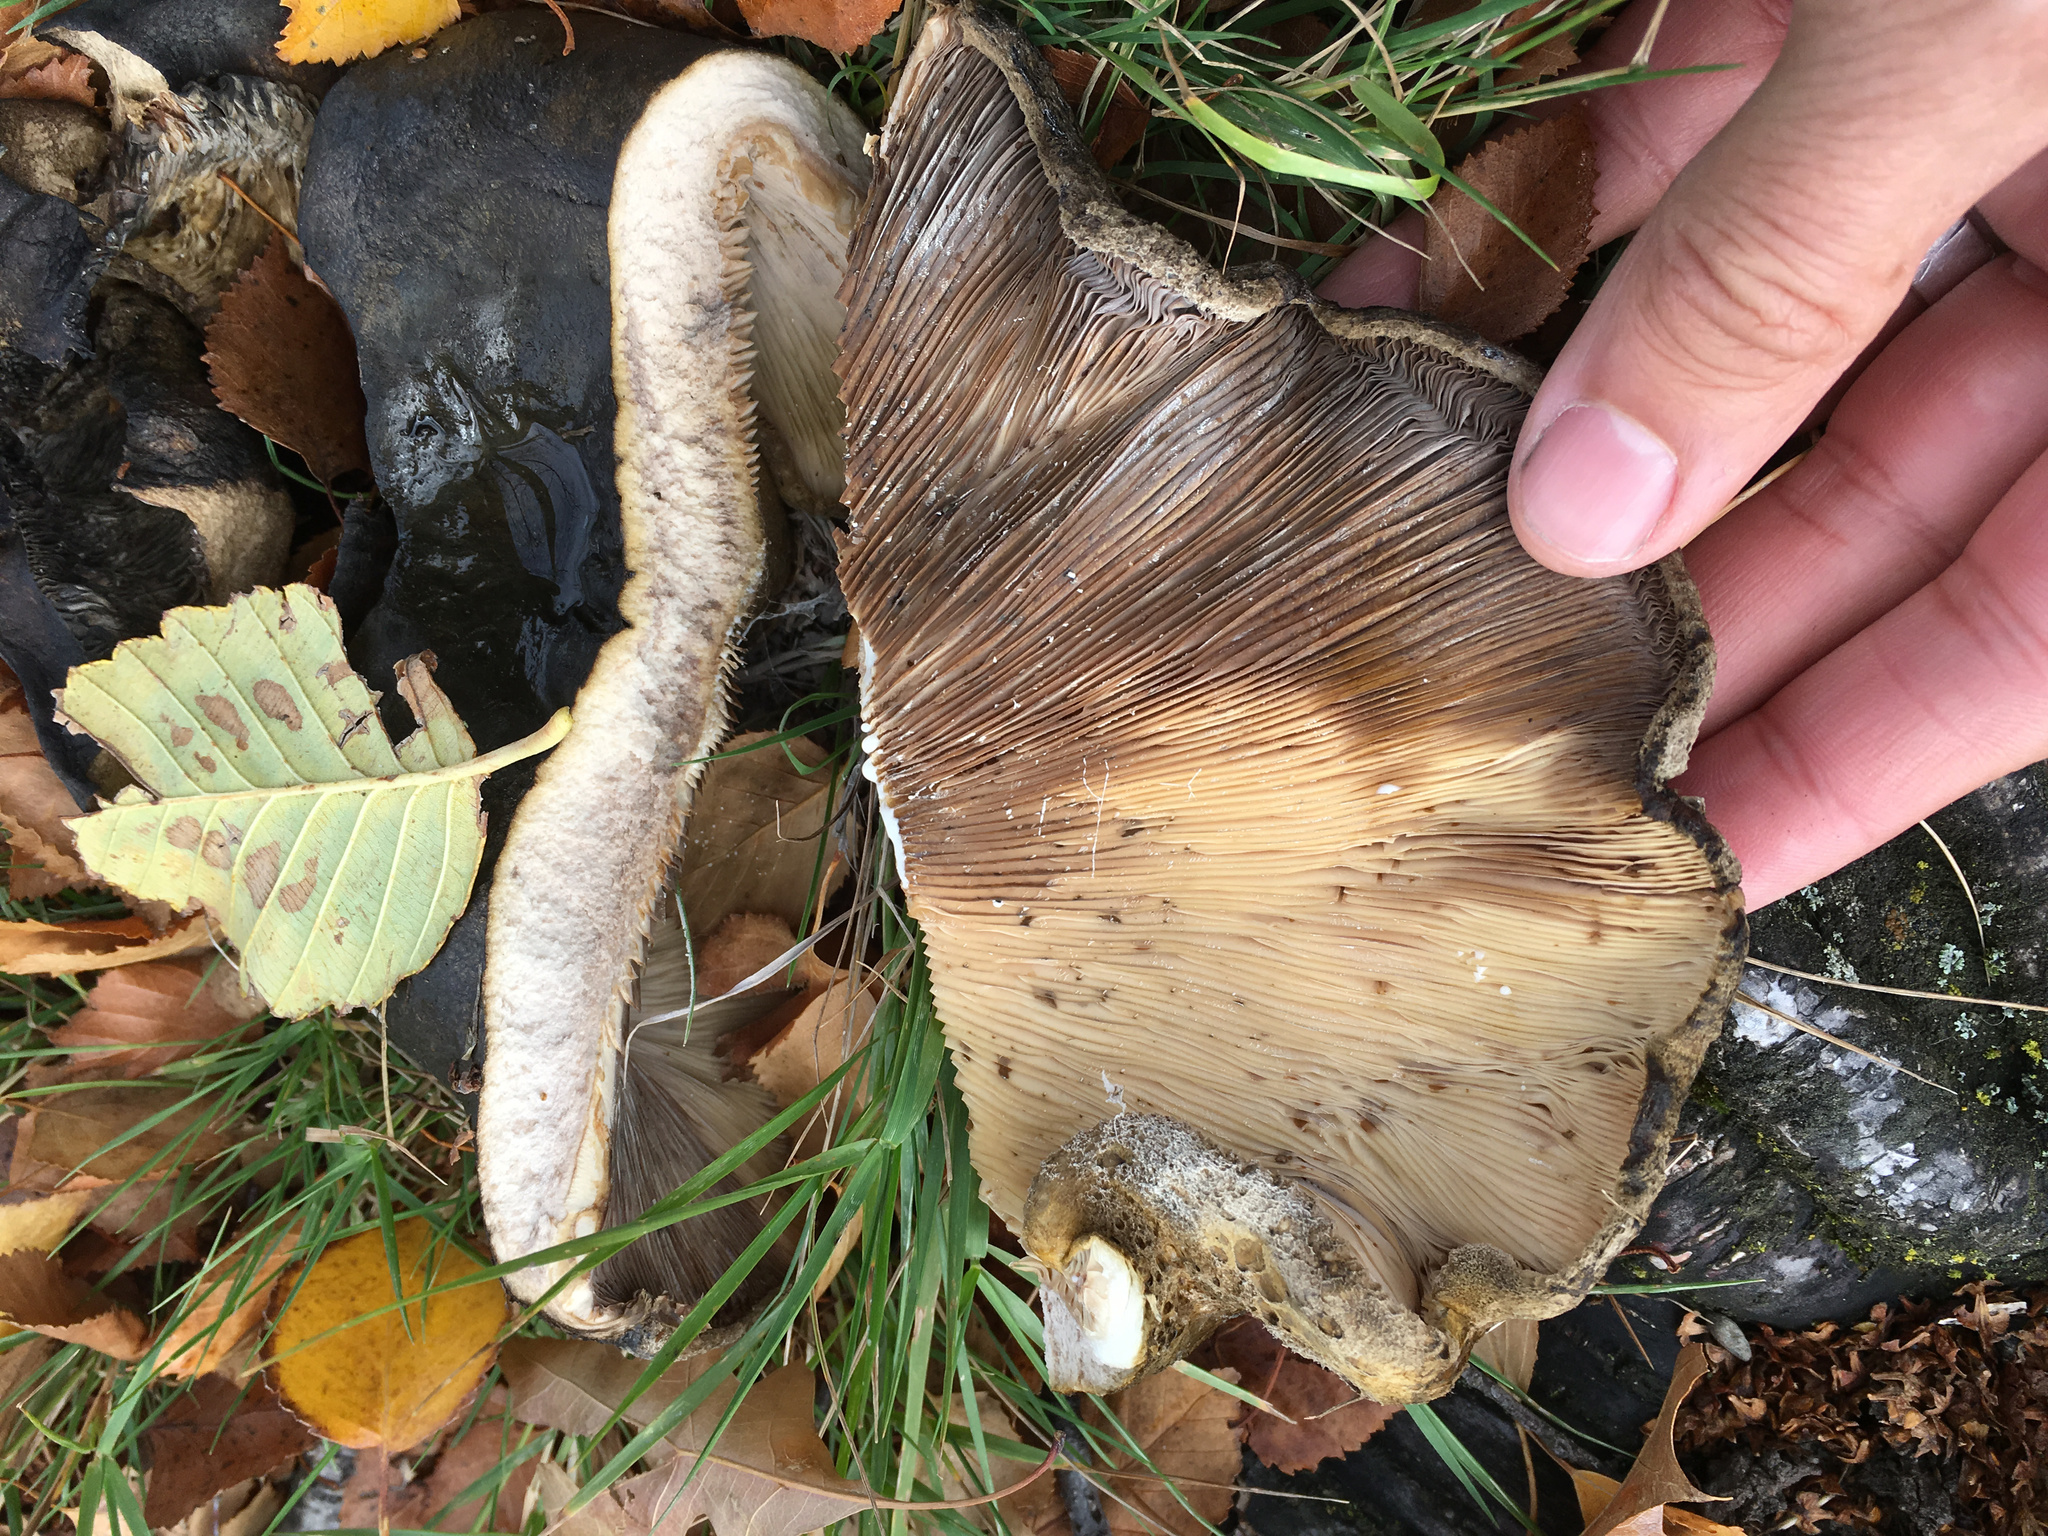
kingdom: Fungi
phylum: Basidiomycota
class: Agaricomycetes
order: Russulales
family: Russulaceae
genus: Lactarius
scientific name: Lactarius turpis
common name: Ugly milk-cap
